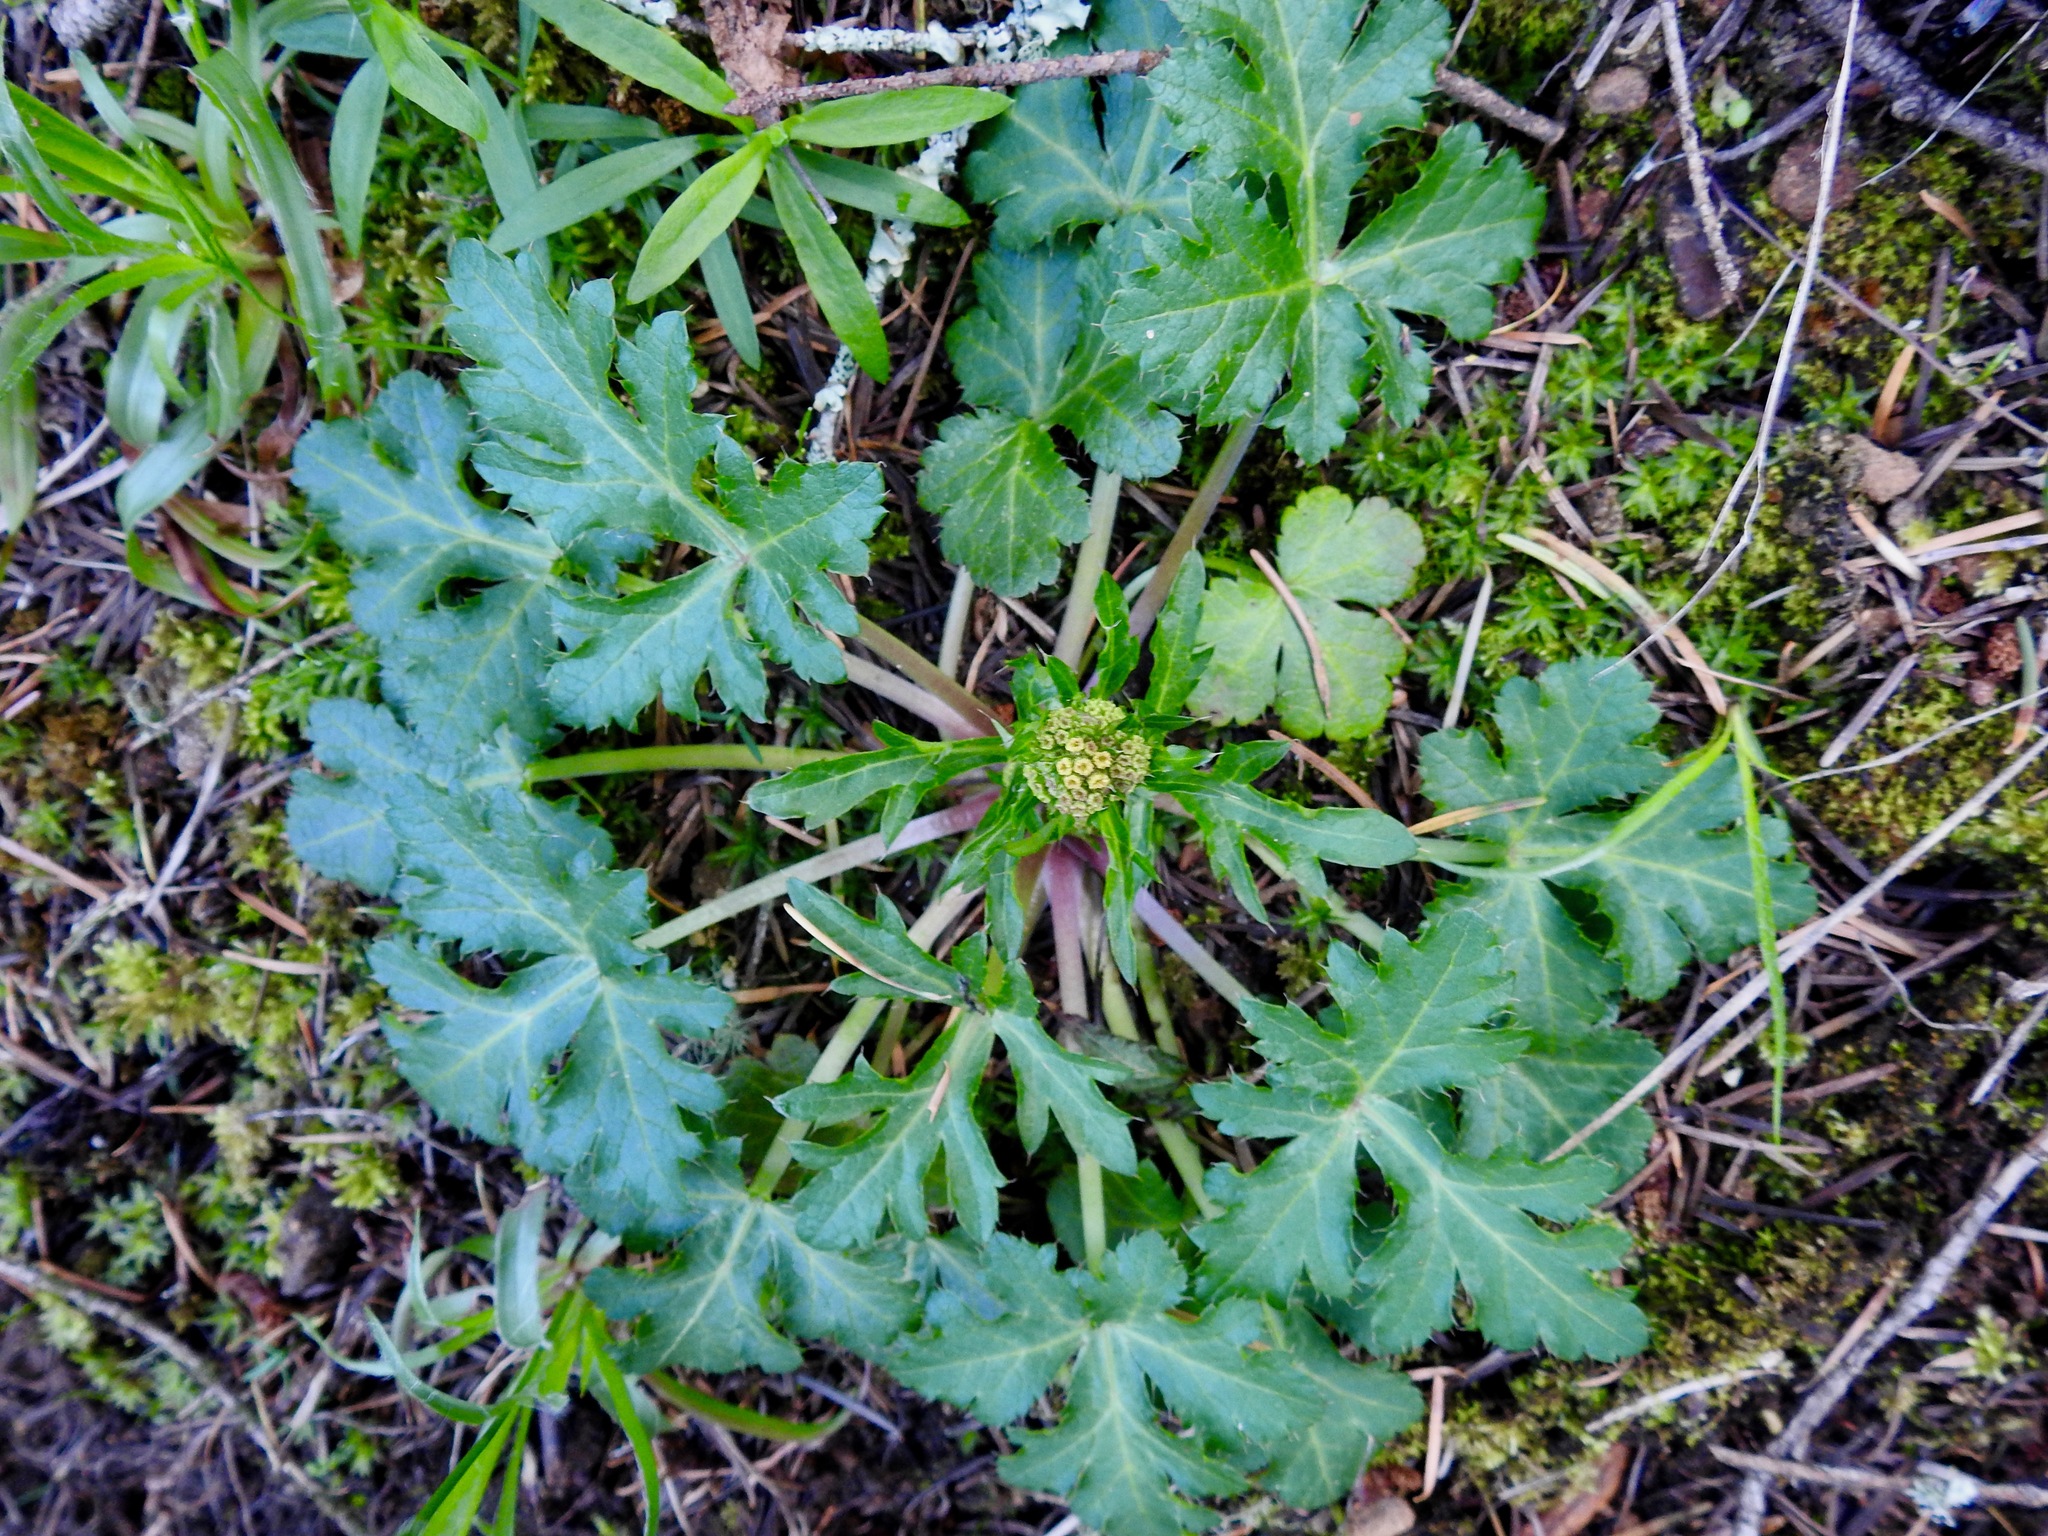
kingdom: Plantae
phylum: Tracheophyta
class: Magnoliopsida
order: Apiales
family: Apiaceae
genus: Sanicula
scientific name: Sanicula crassicaulis
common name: Western snakeroot
